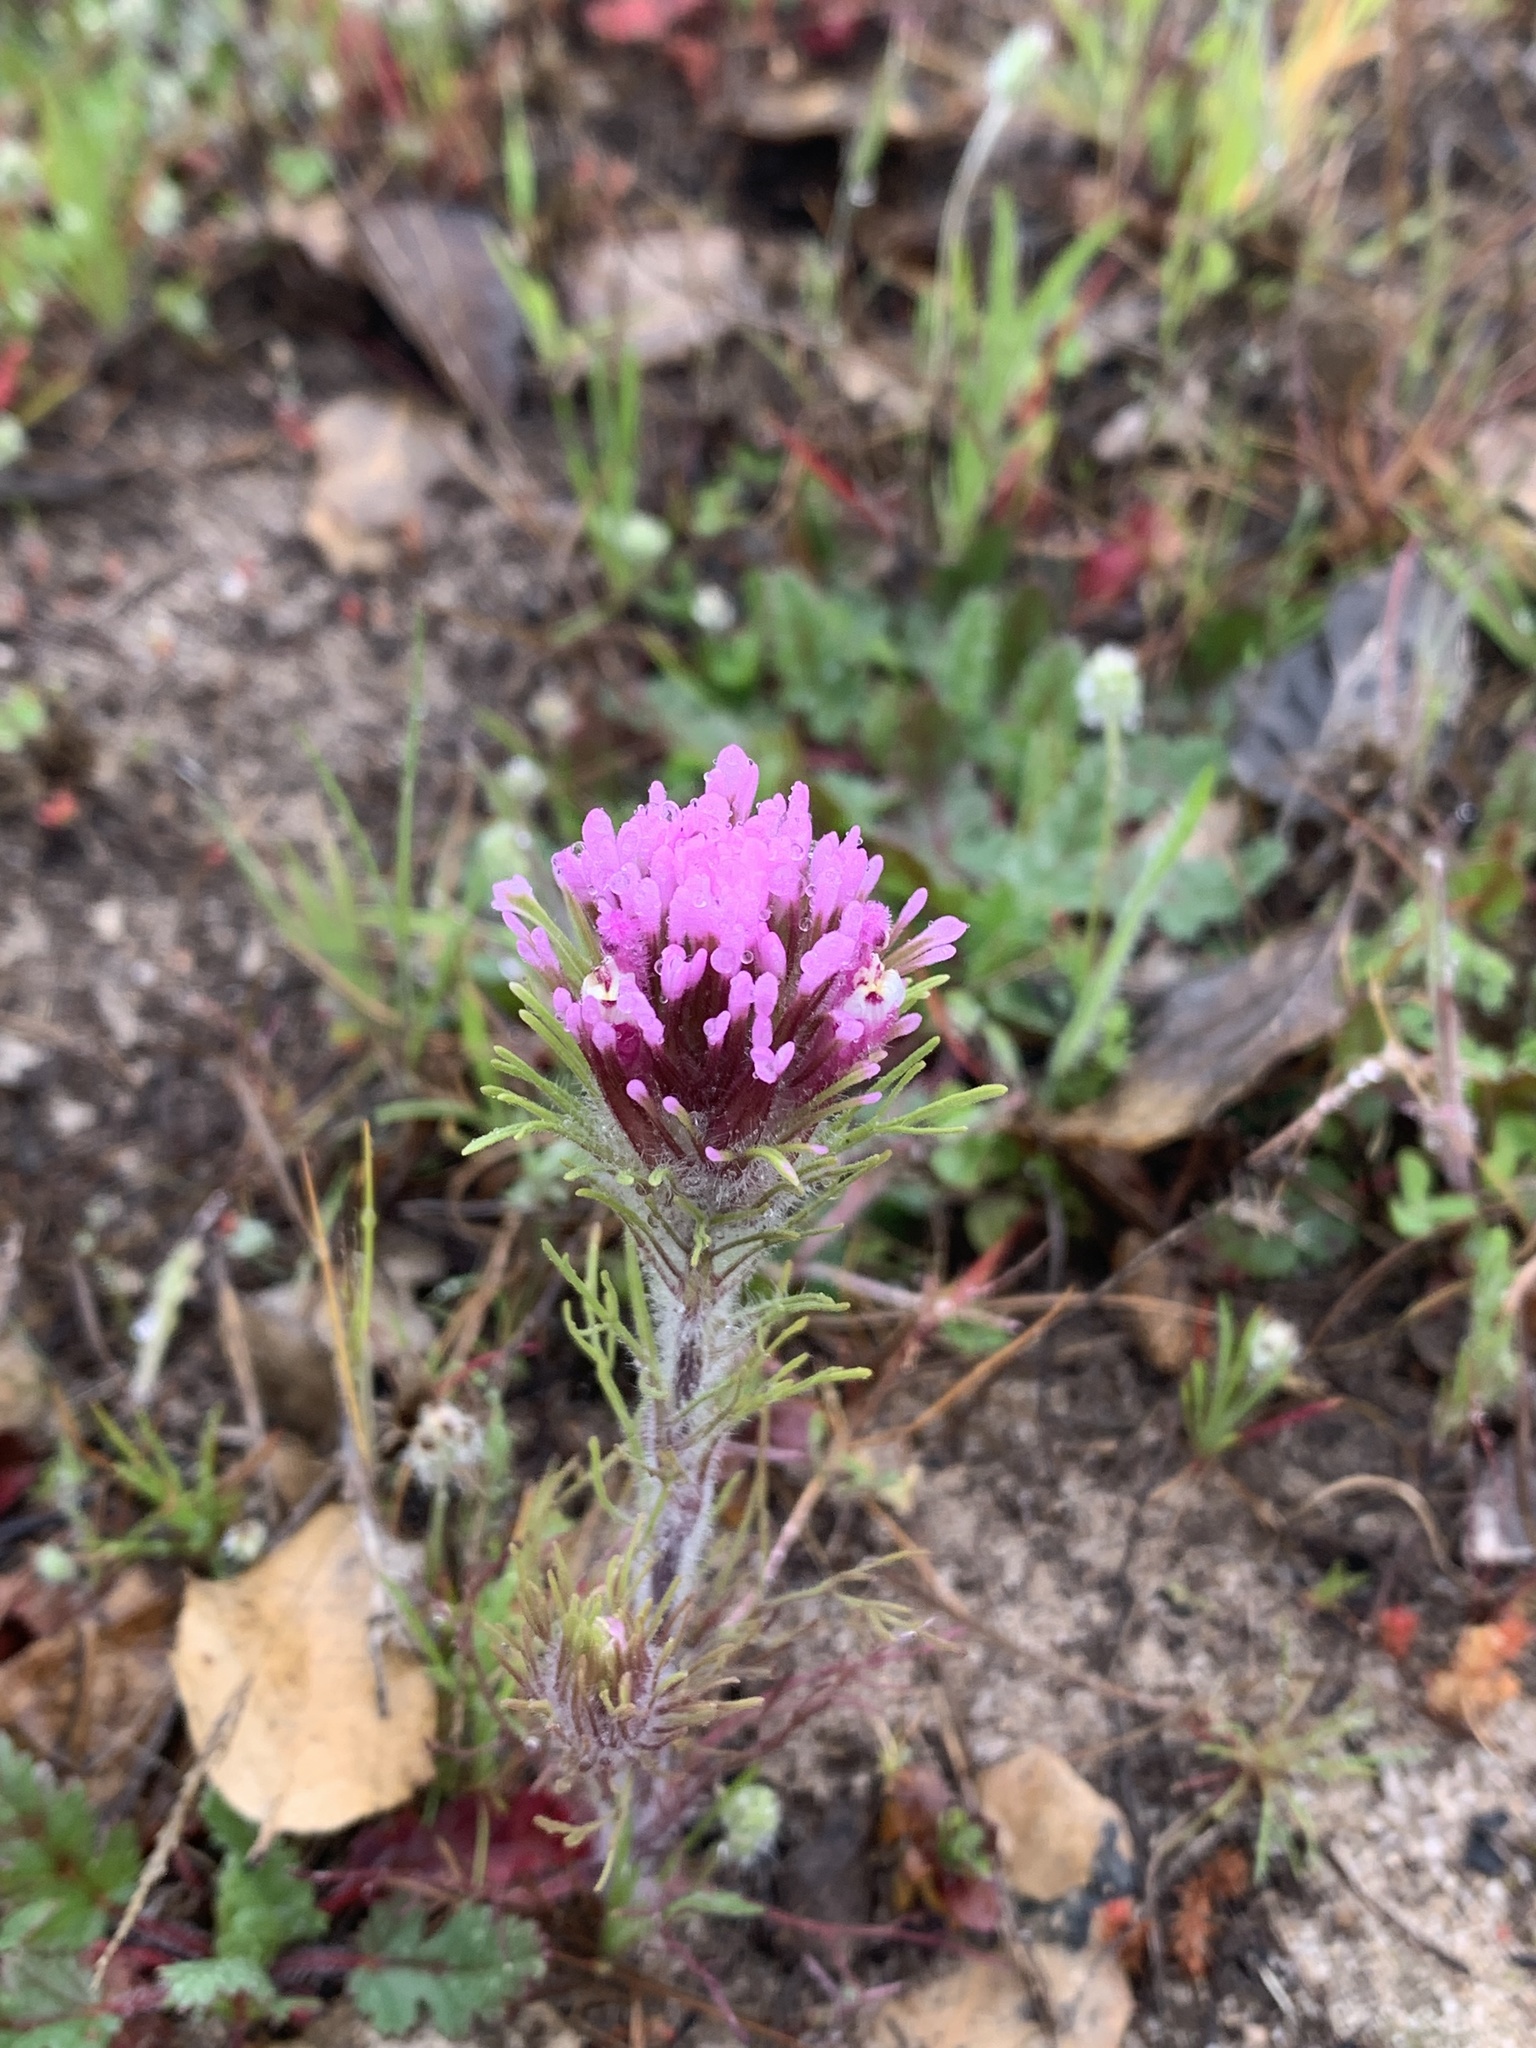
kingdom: Plantae
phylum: Tracheophyta
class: Magnoliopsida
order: Lamiales
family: Orobanchaceae
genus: Castilleja
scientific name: Castilleja exserta
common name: Purple owl-clover
